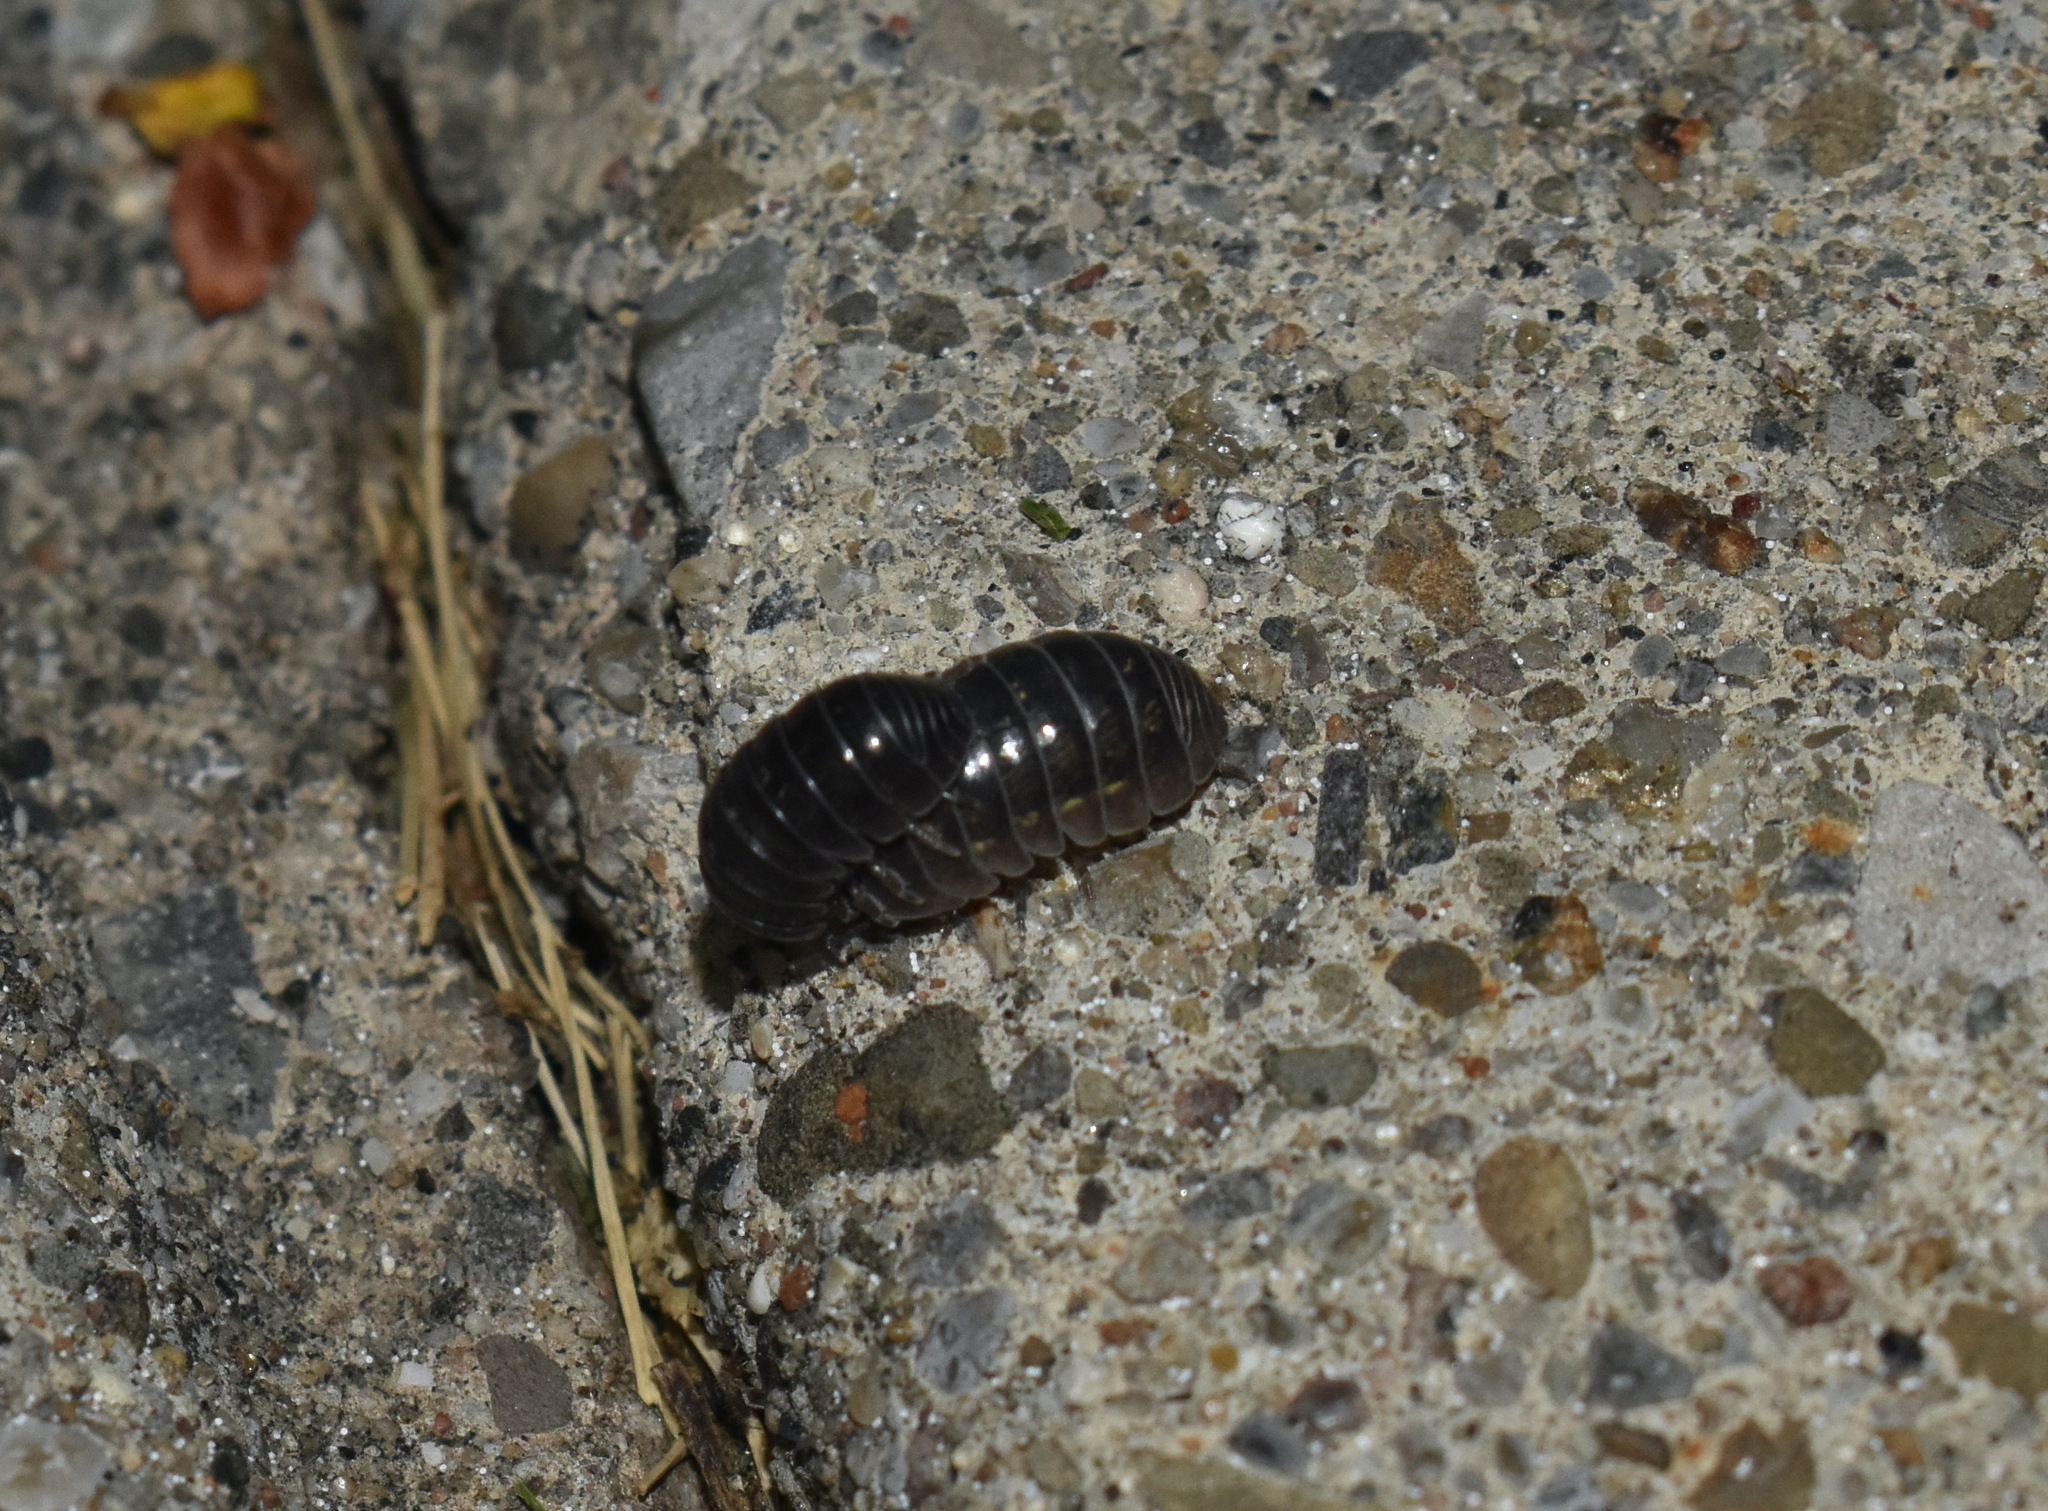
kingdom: Animalia
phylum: Arthropoda
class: Malacostraca
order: Isopoda
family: Armadillidiidae
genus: Armadillidium
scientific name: Armadillidium vulgare
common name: Common pill woodlouse
